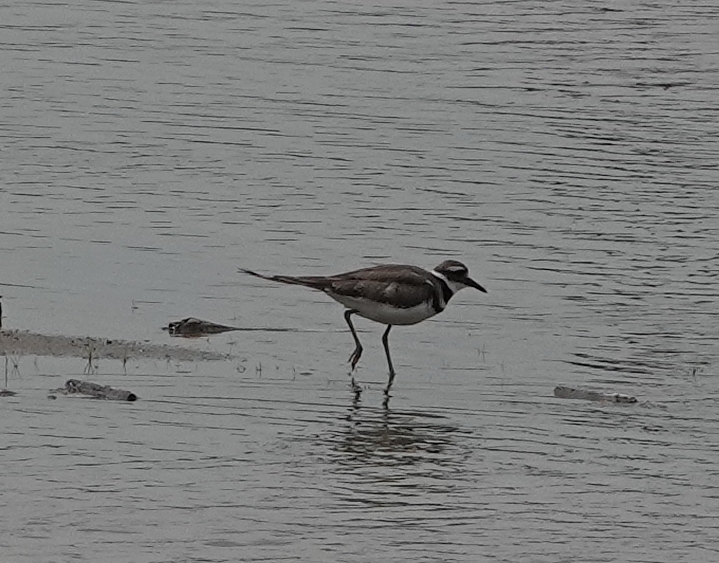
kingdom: Animalia
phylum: Chordata
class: Aves
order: Charadriiformes
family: Charadriidae
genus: Charadrius
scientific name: Charadrius vociferus
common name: Killdeer
